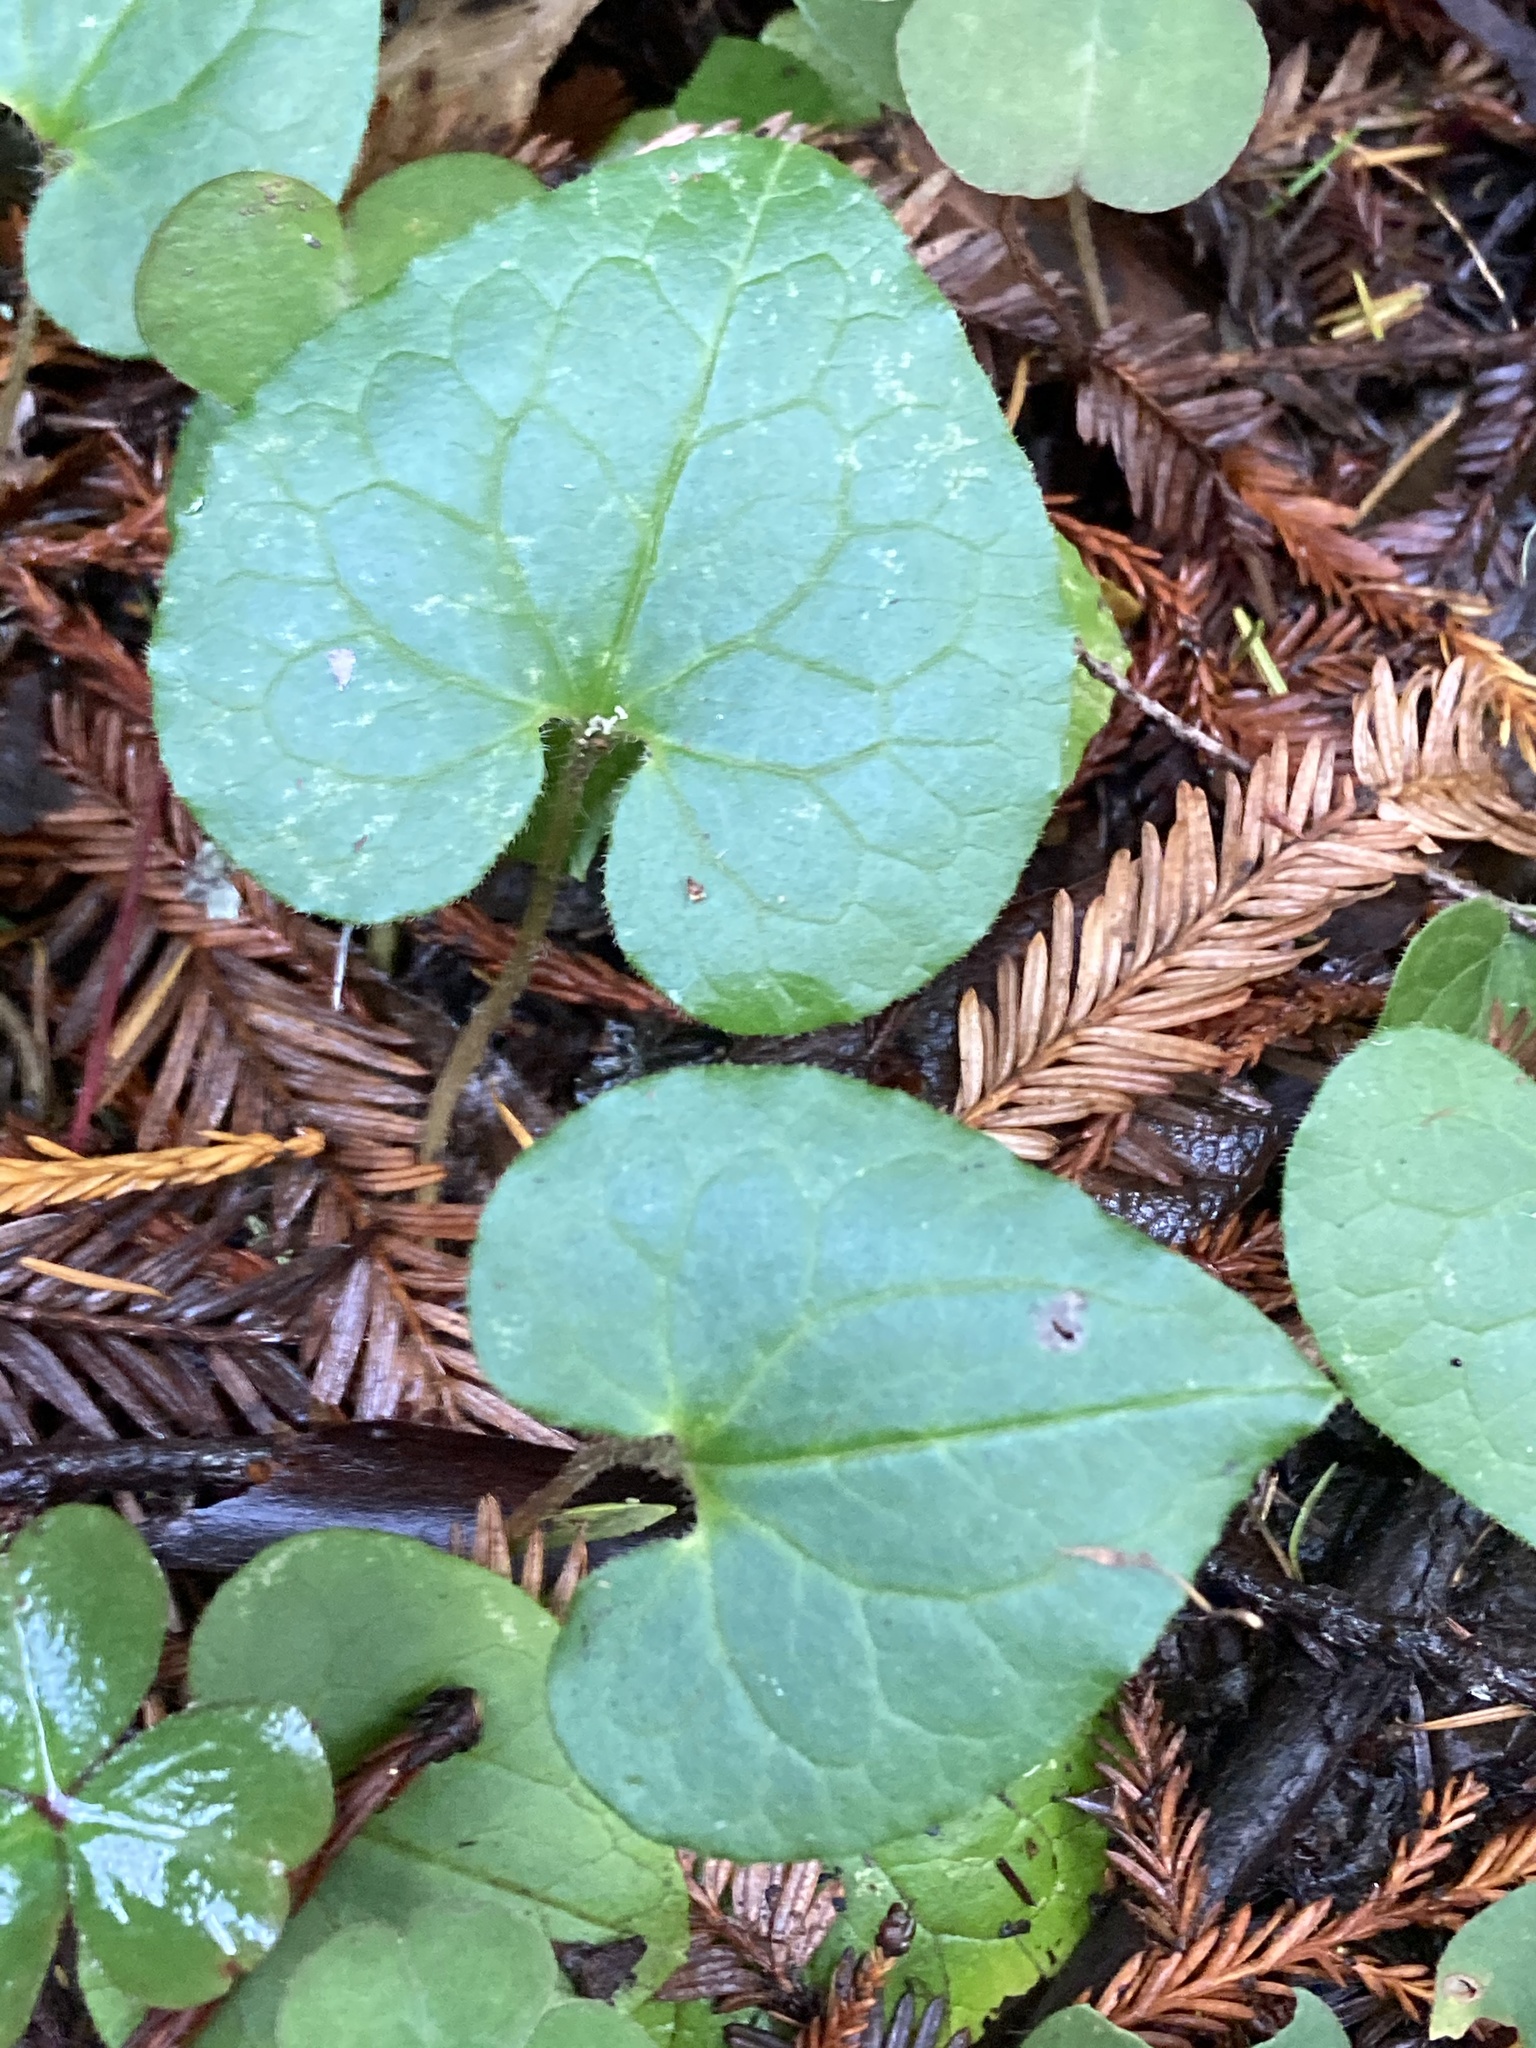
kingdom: Plantae
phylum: Tracheophyta
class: Magnoliopsida
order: Piperales
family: Aristolochiaceae
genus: Asarum
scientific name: Asarum caudatum
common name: Wild ginger
